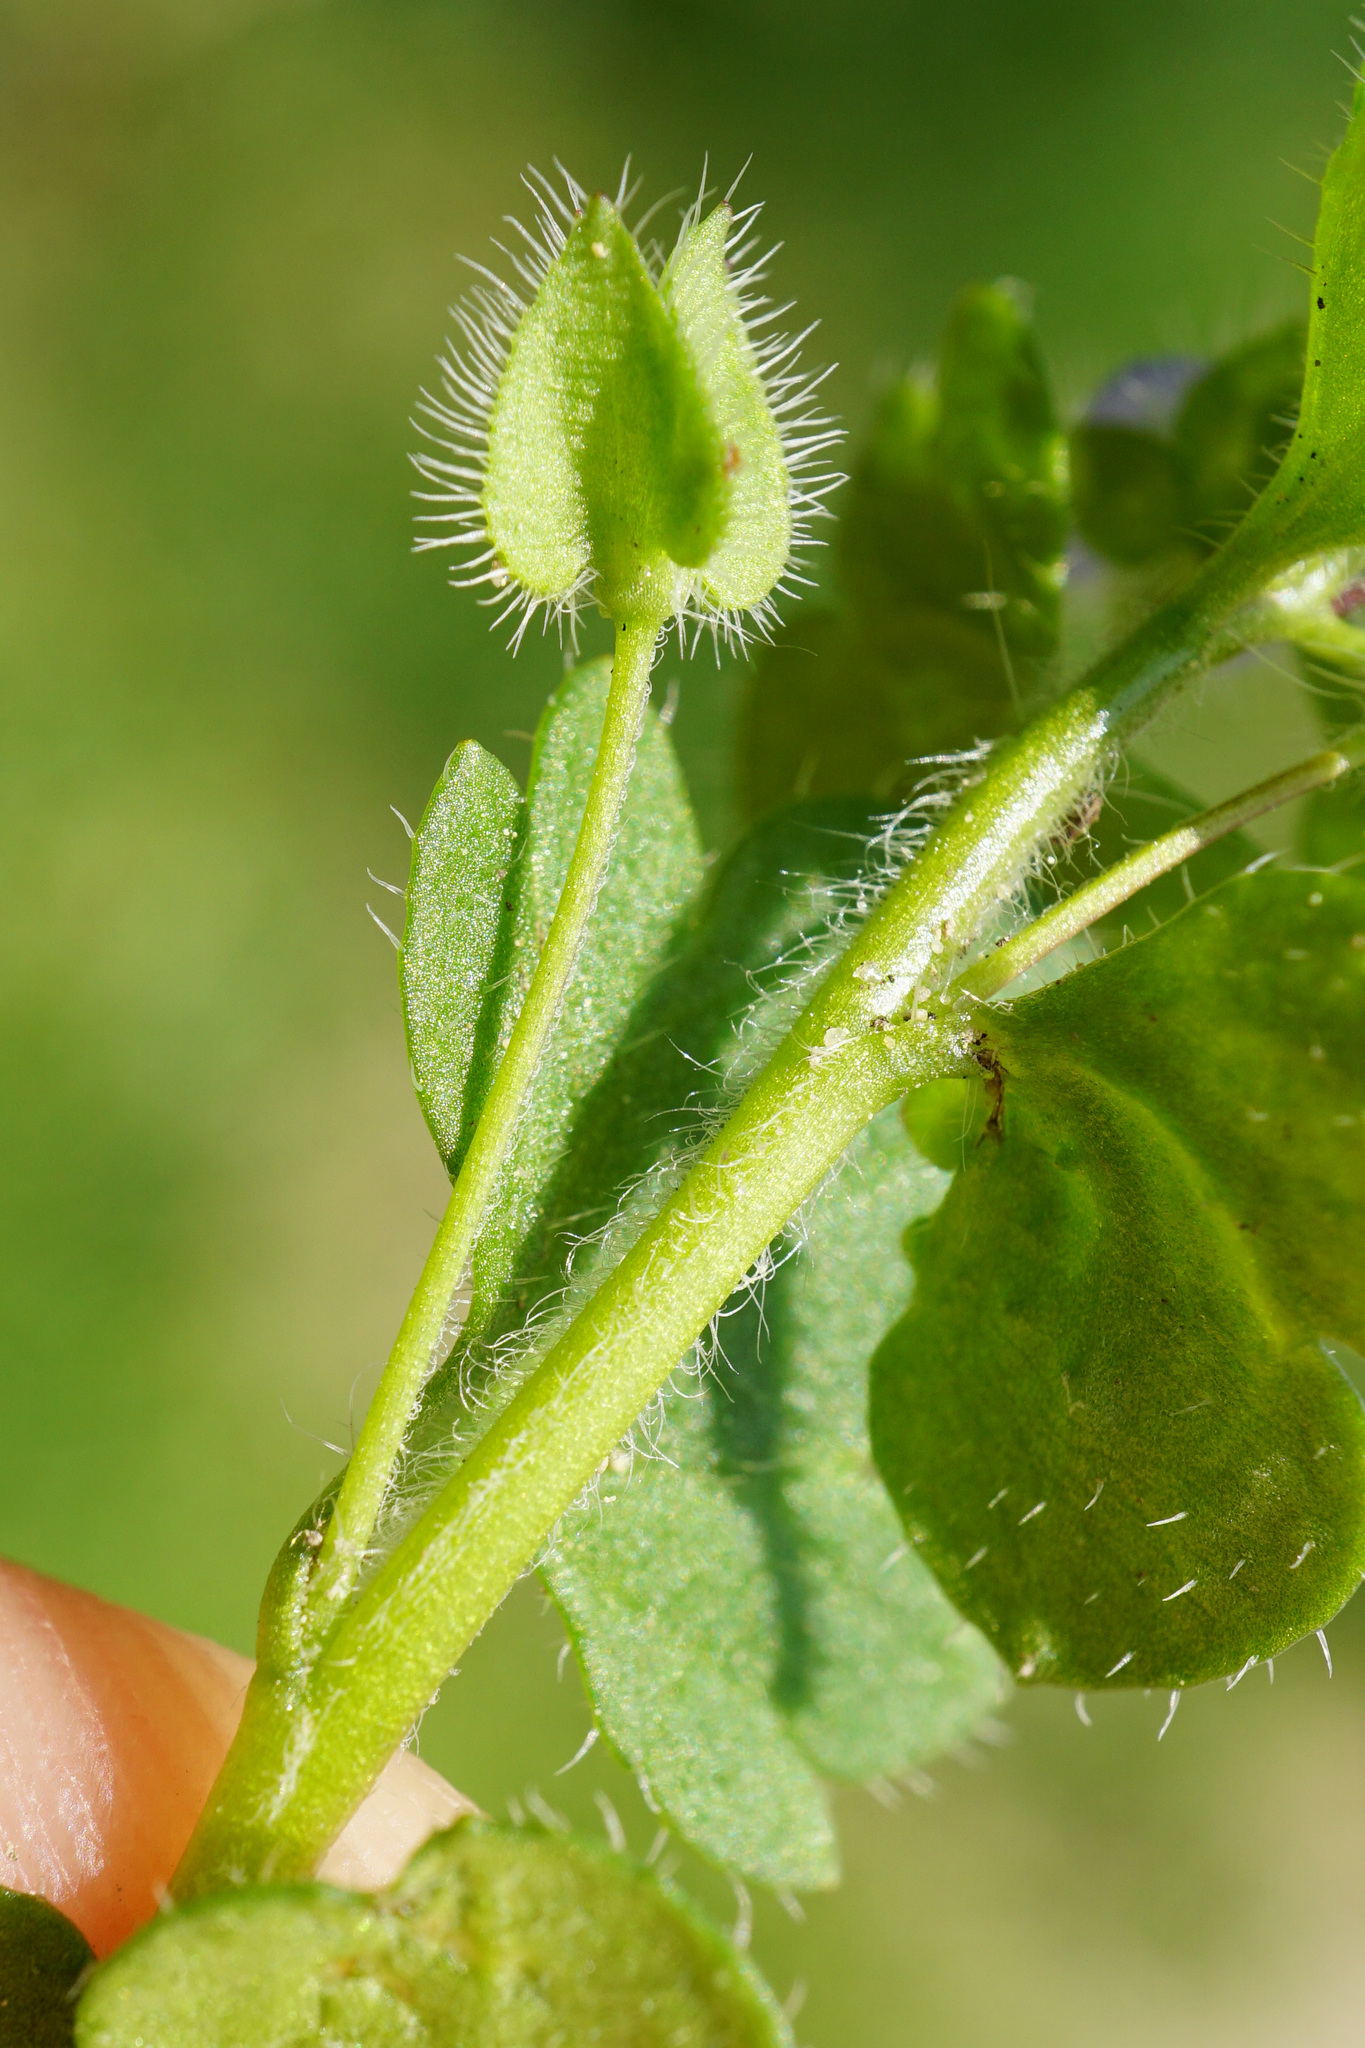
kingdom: Plantae
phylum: Tracheophyta
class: Magnoliopsida
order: Lamiales
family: Plantaginaceae
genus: Veronica
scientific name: Veronica hederifolia
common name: Ivy-leaved speedwell
